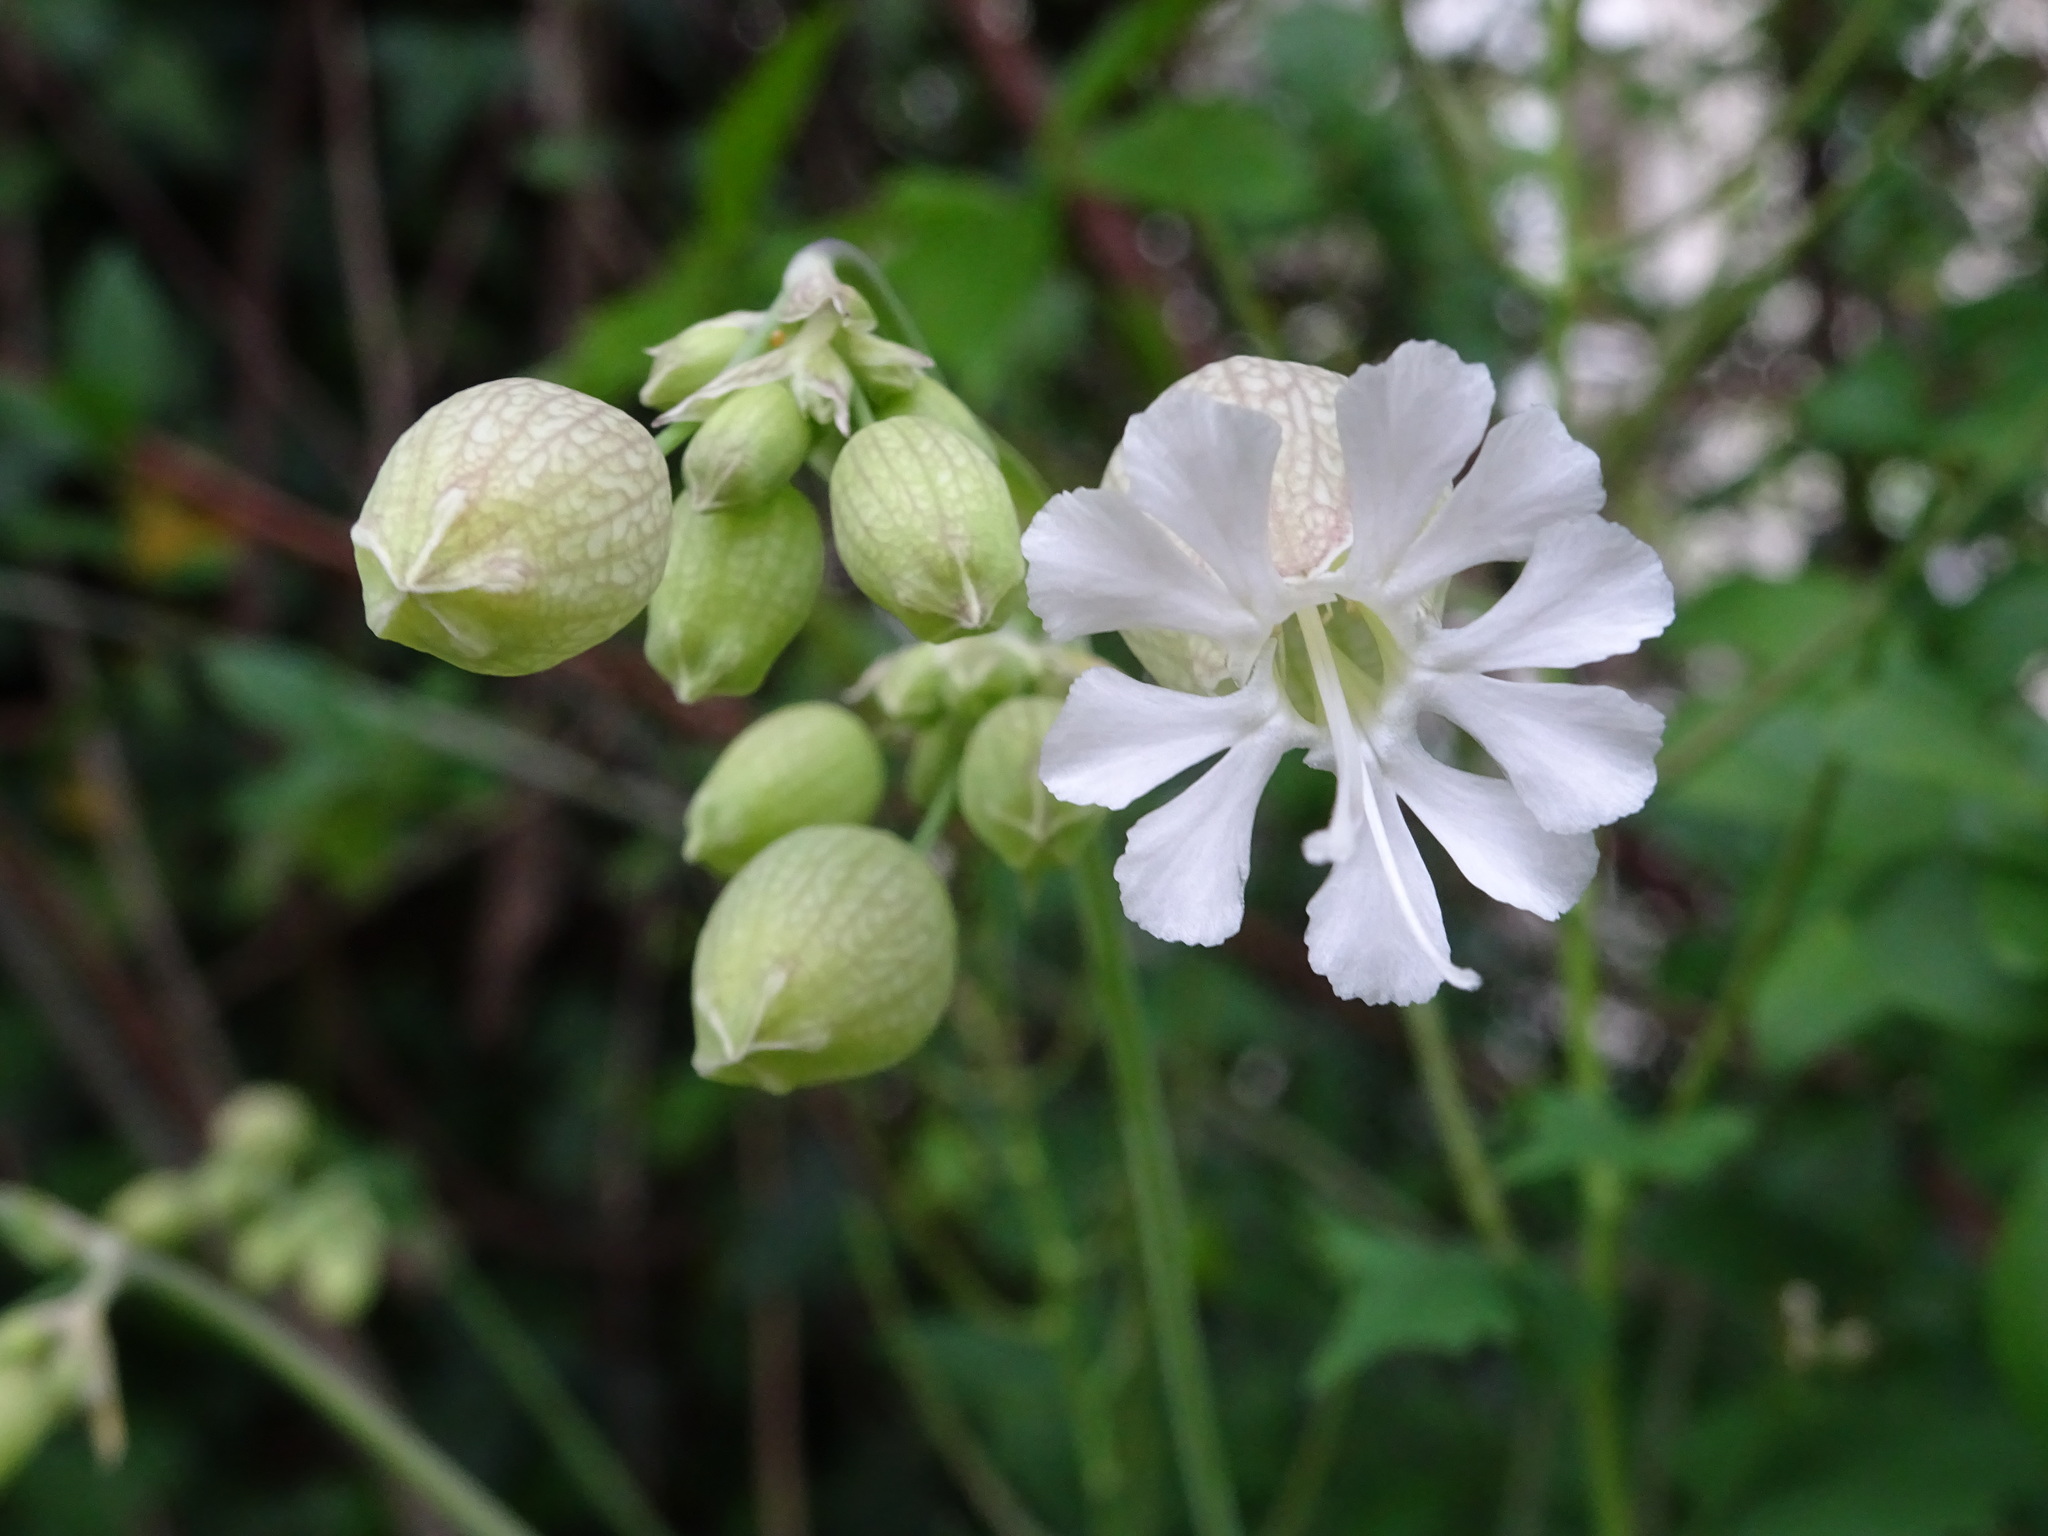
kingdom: Plantae
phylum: Tracheophyta
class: Magnoliopsida
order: Caryophyllales
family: Caryophyllaceae
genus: Silene
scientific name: Silene vulgaris
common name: Bladder campion
